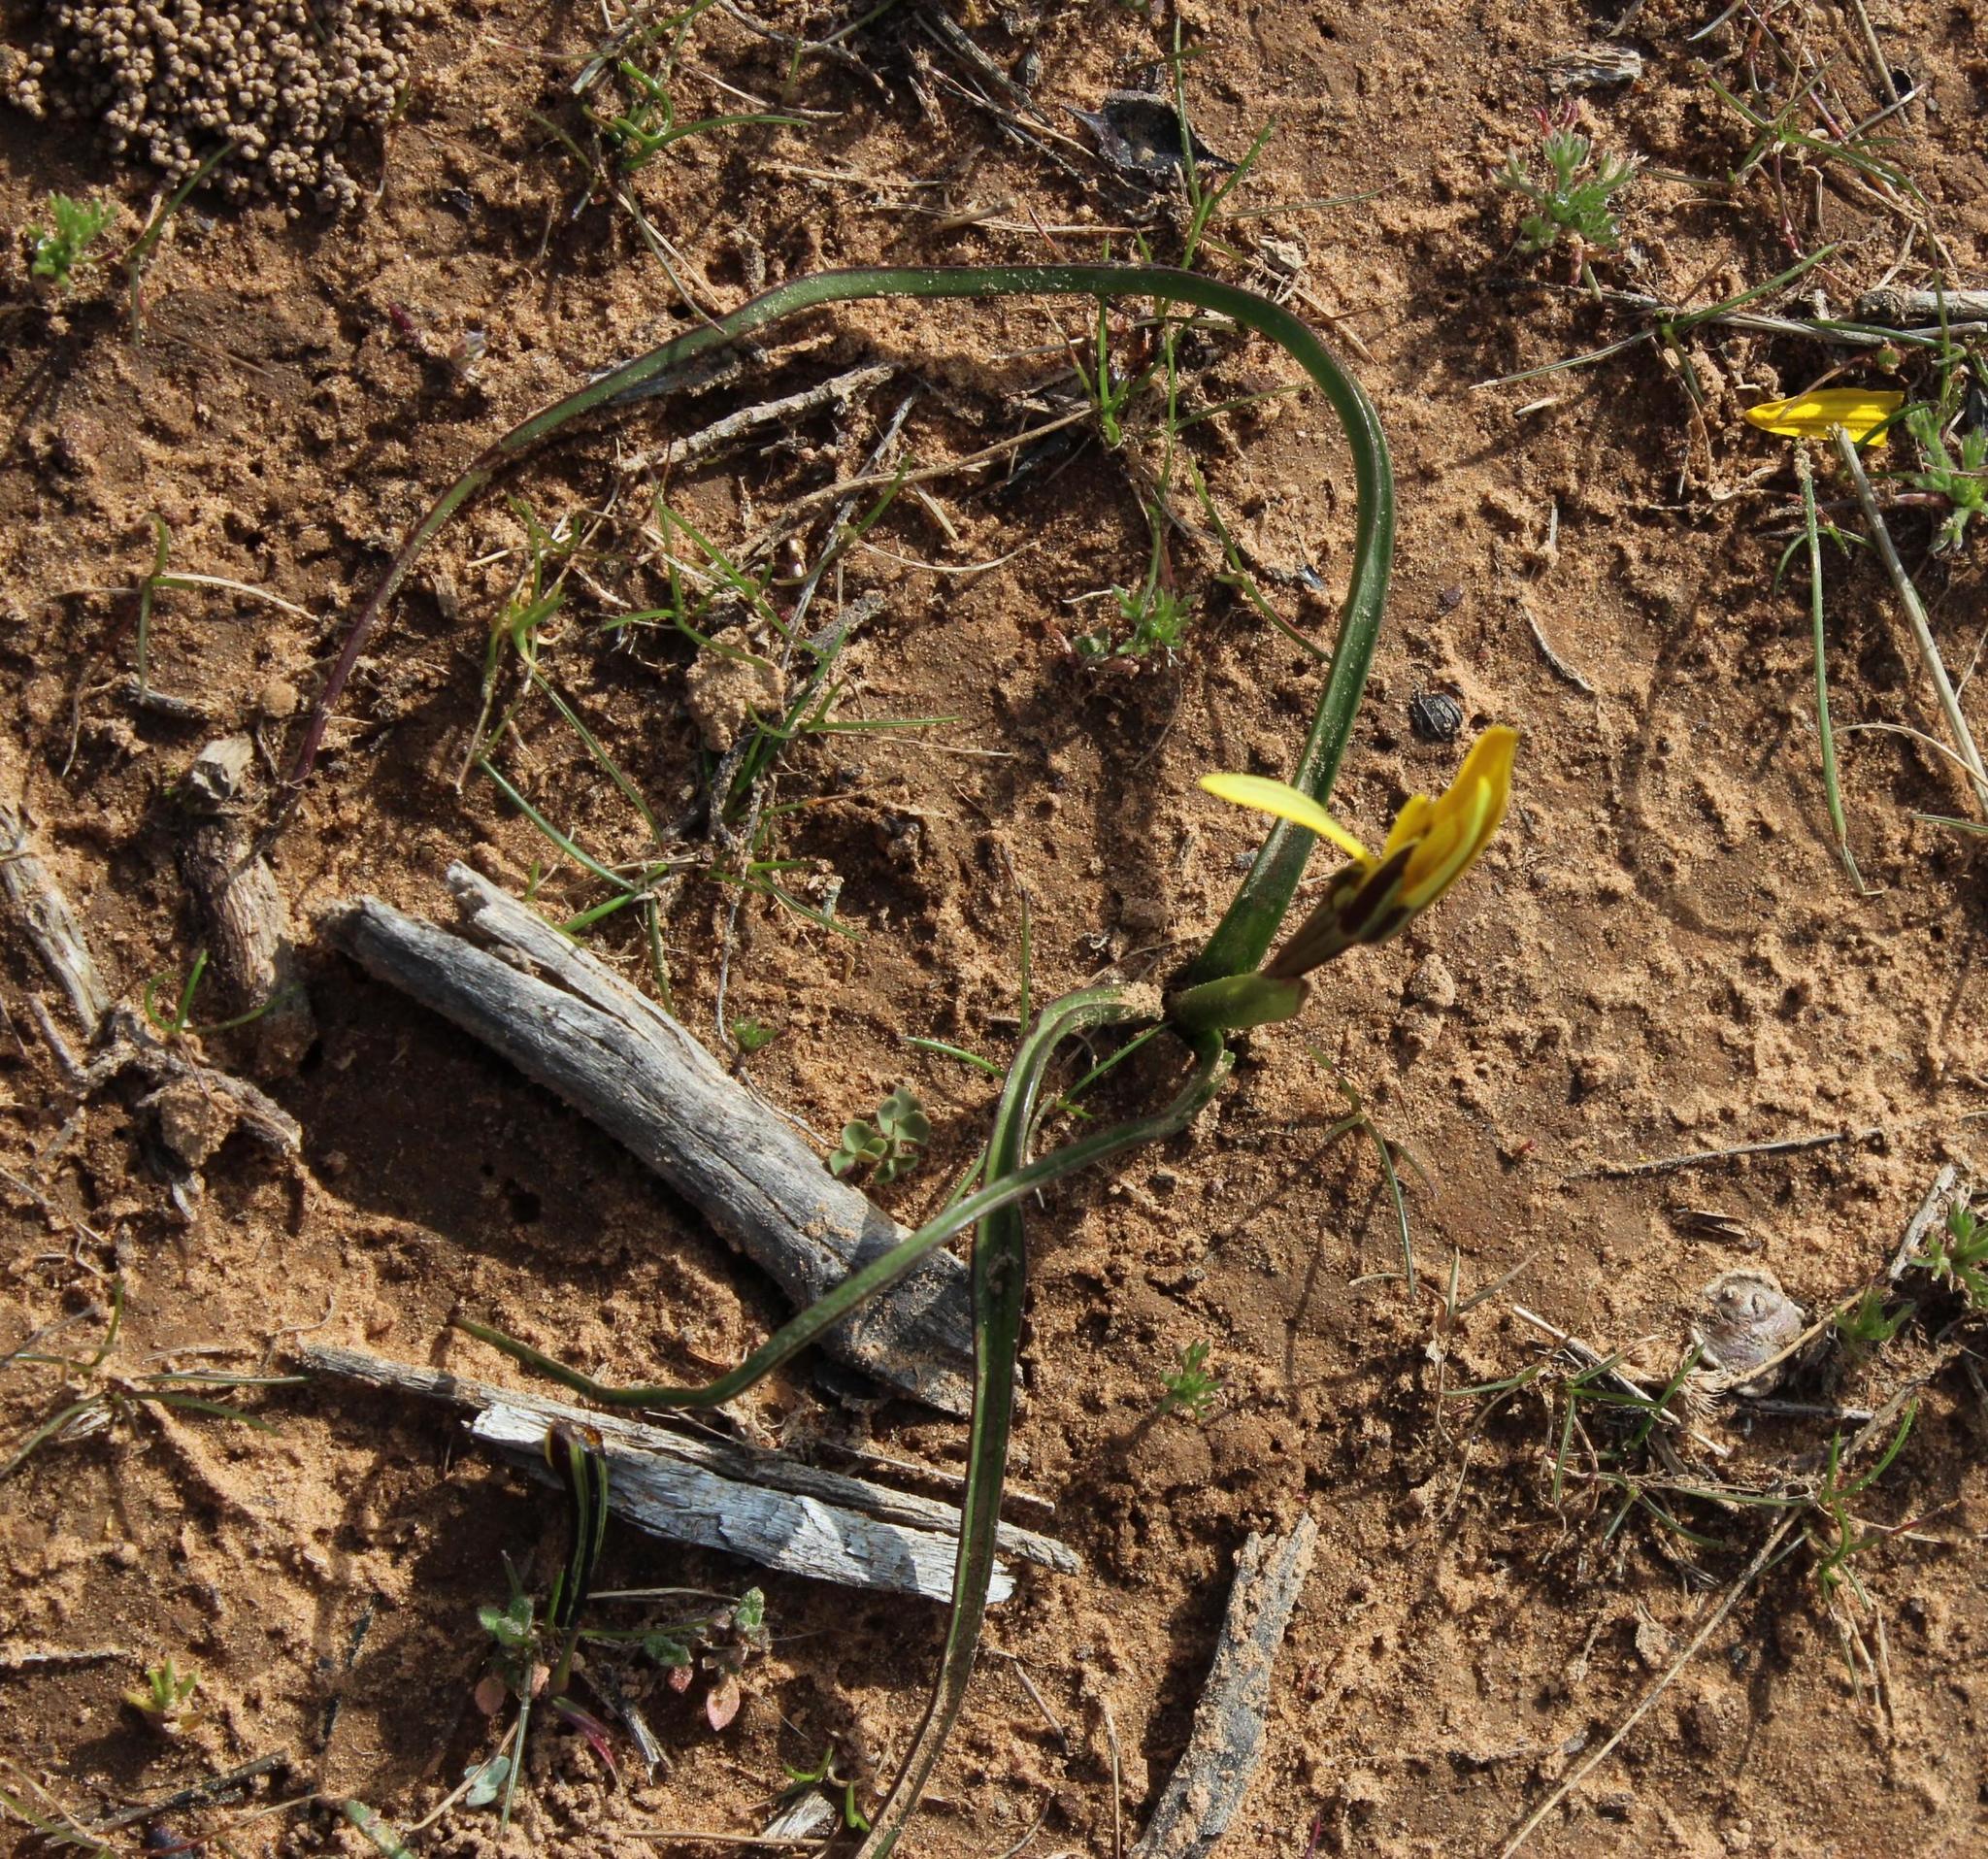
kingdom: Plantae
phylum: Tracheophyta
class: Liliopsida
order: Asparagales
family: Hypoxidaceae
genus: Pauridia
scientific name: Pauridia capensis
